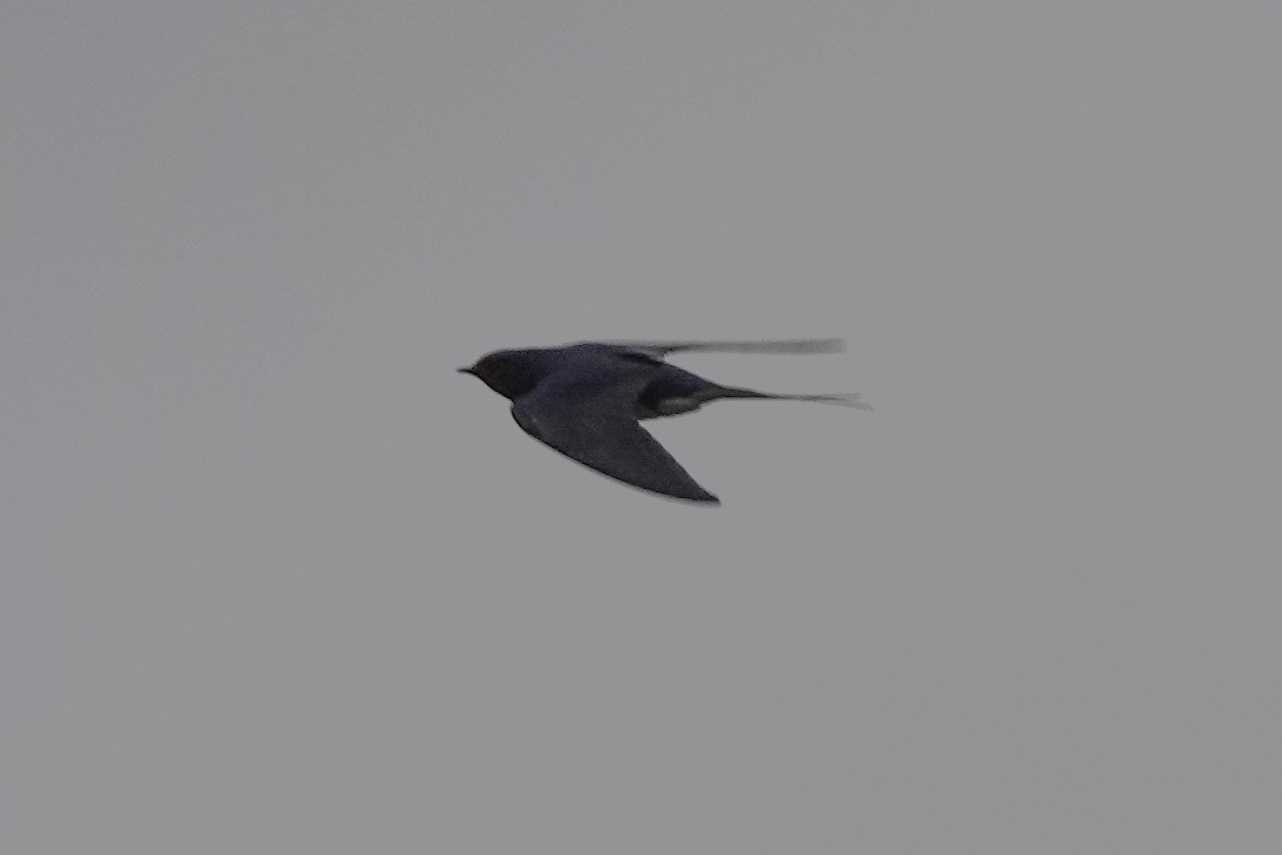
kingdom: Animalia
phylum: Chordata
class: Aves
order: Passeriformes
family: Hirundinidae
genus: Hirundo
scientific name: Hirundo rustica
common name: Barn swallow
